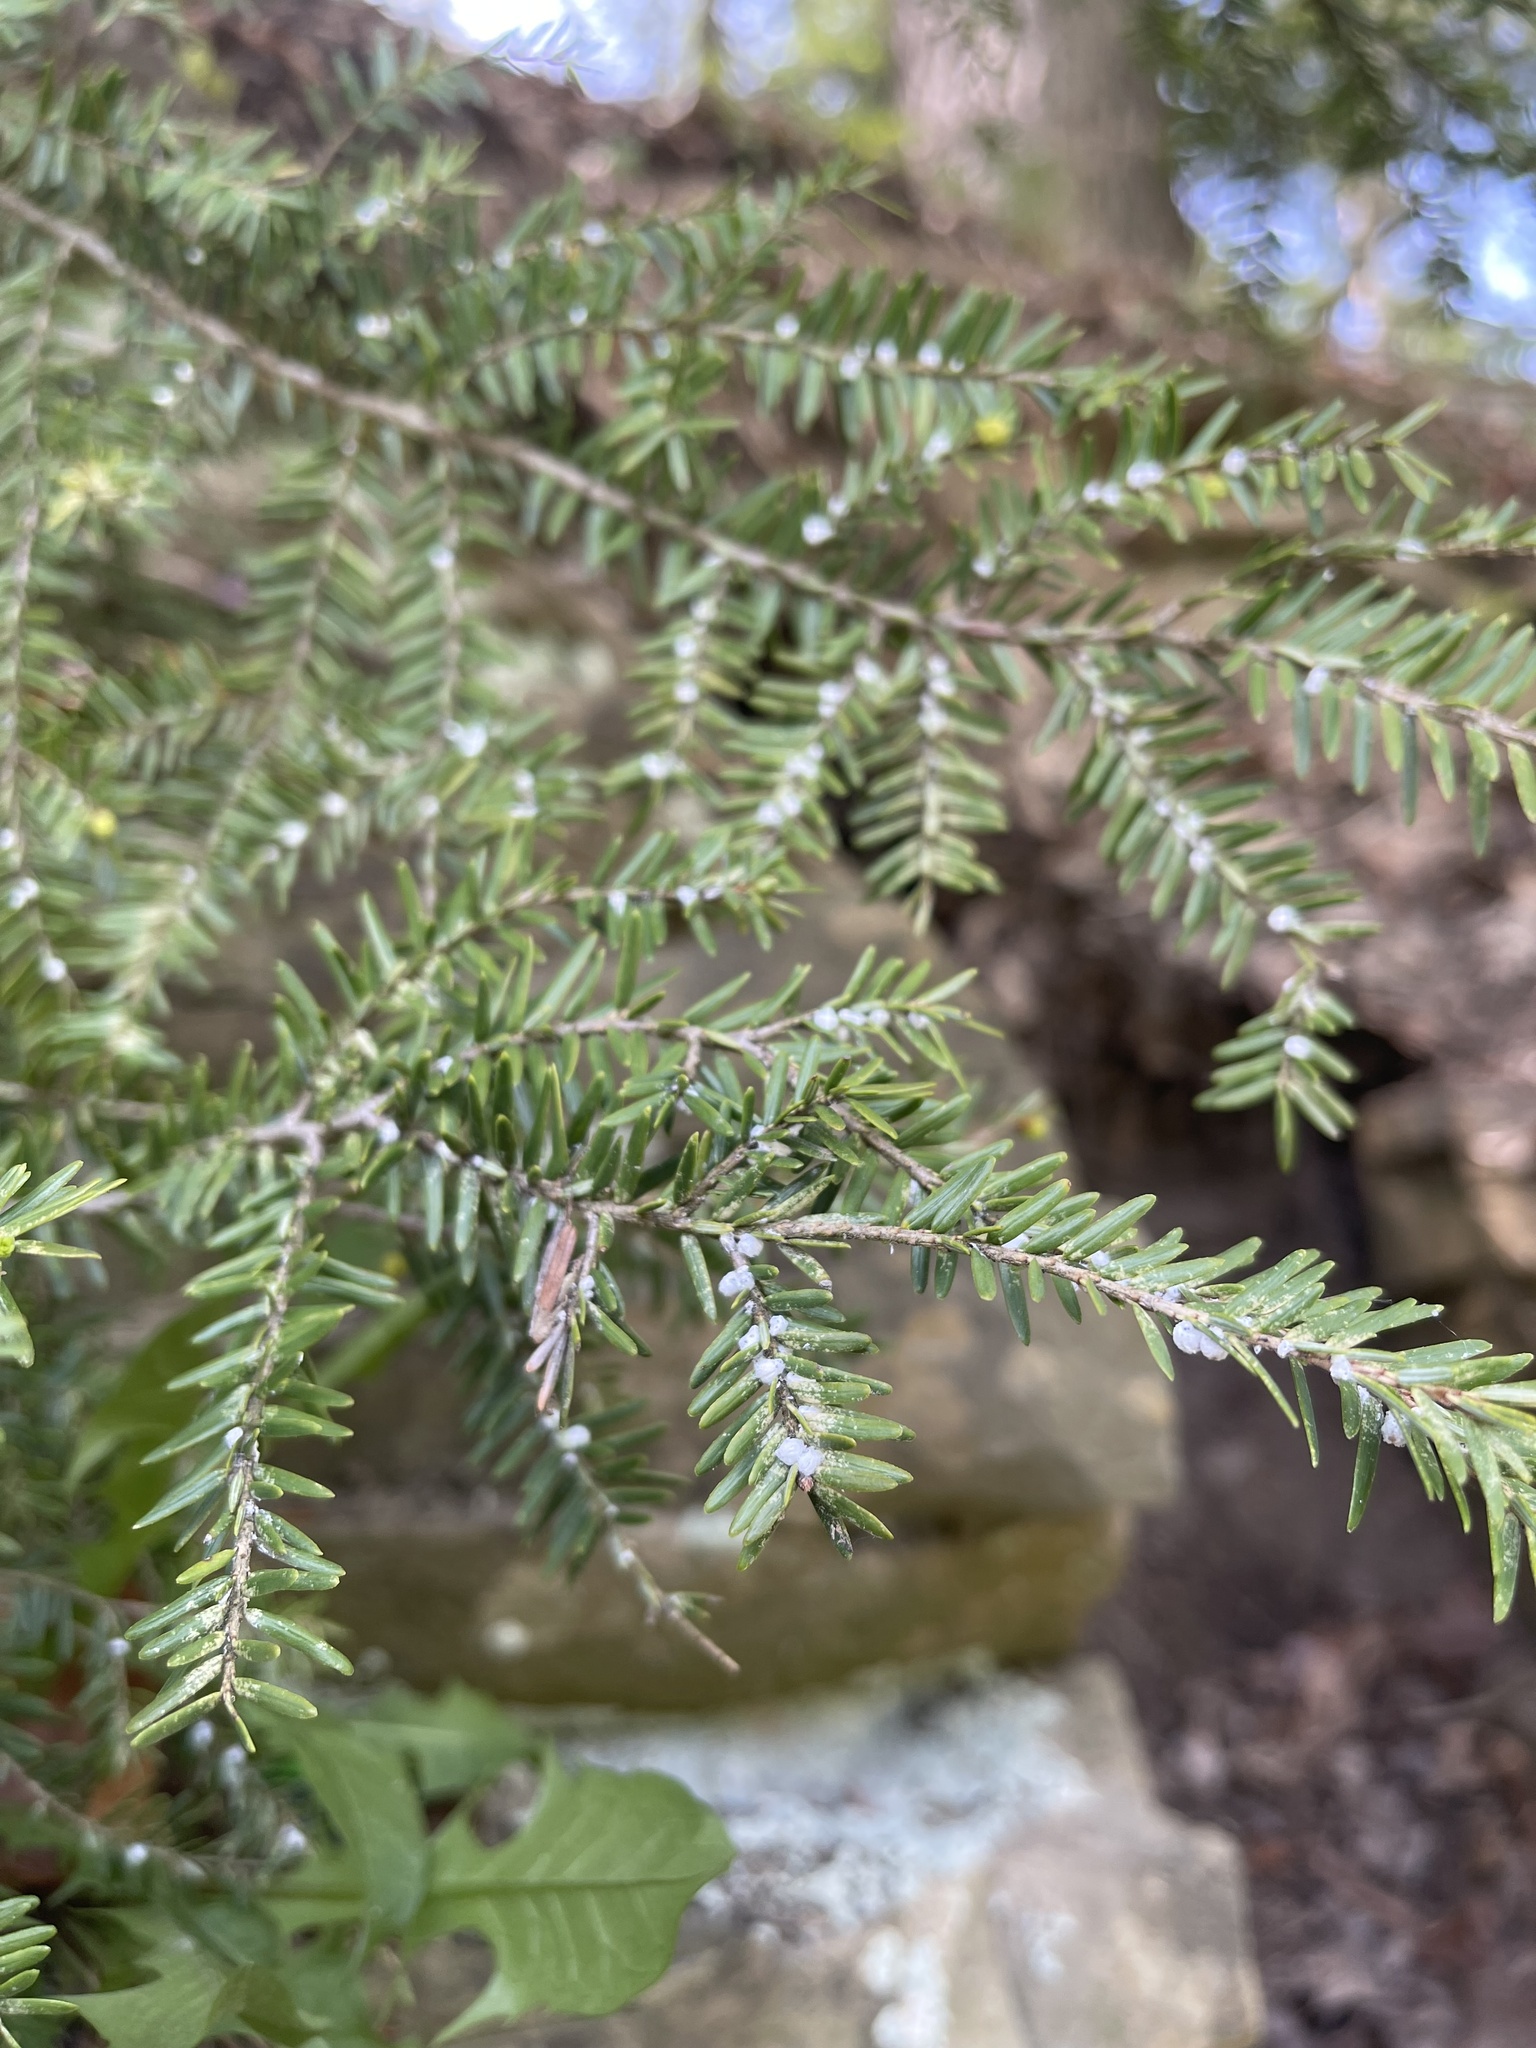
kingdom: Animalia
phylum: Arthropoda
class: Insecta
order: Hemiptera
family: Adelgidae
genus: Adelges
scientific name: Adelges tsugae
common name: Hemlock woolly adelgid
